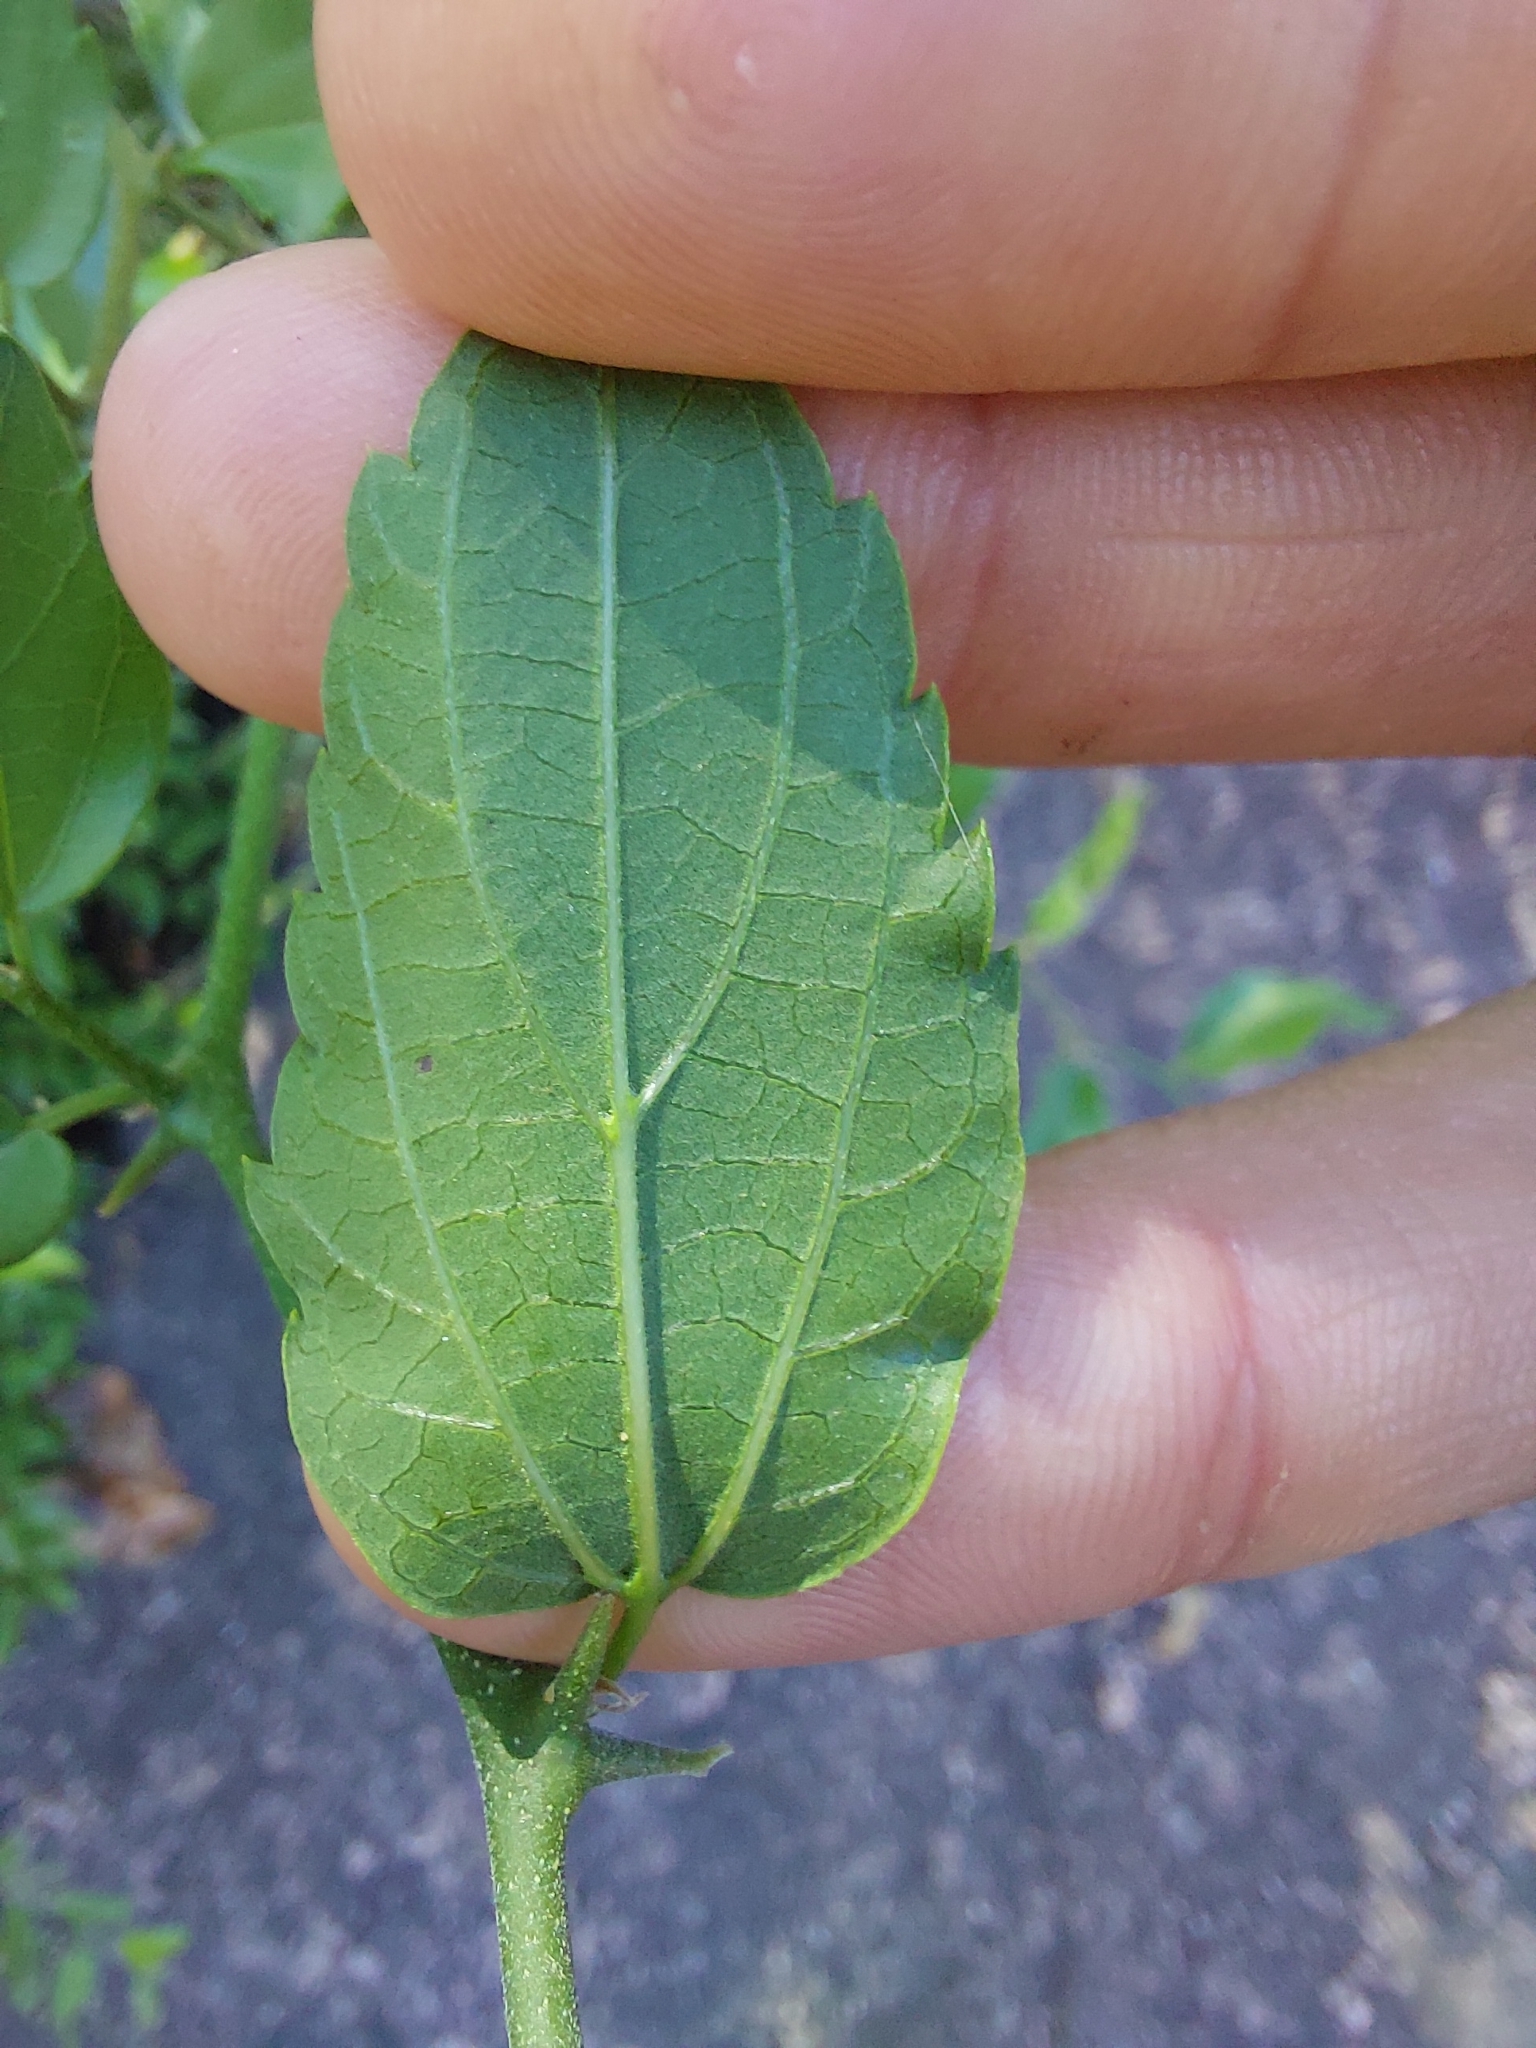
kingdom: Plantae
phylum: Tracheophyta
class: Magnoliopsida
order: Rosales
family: Cannabaceae
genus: Celtis
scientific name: Celtis pallida
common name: Desert hackberry
